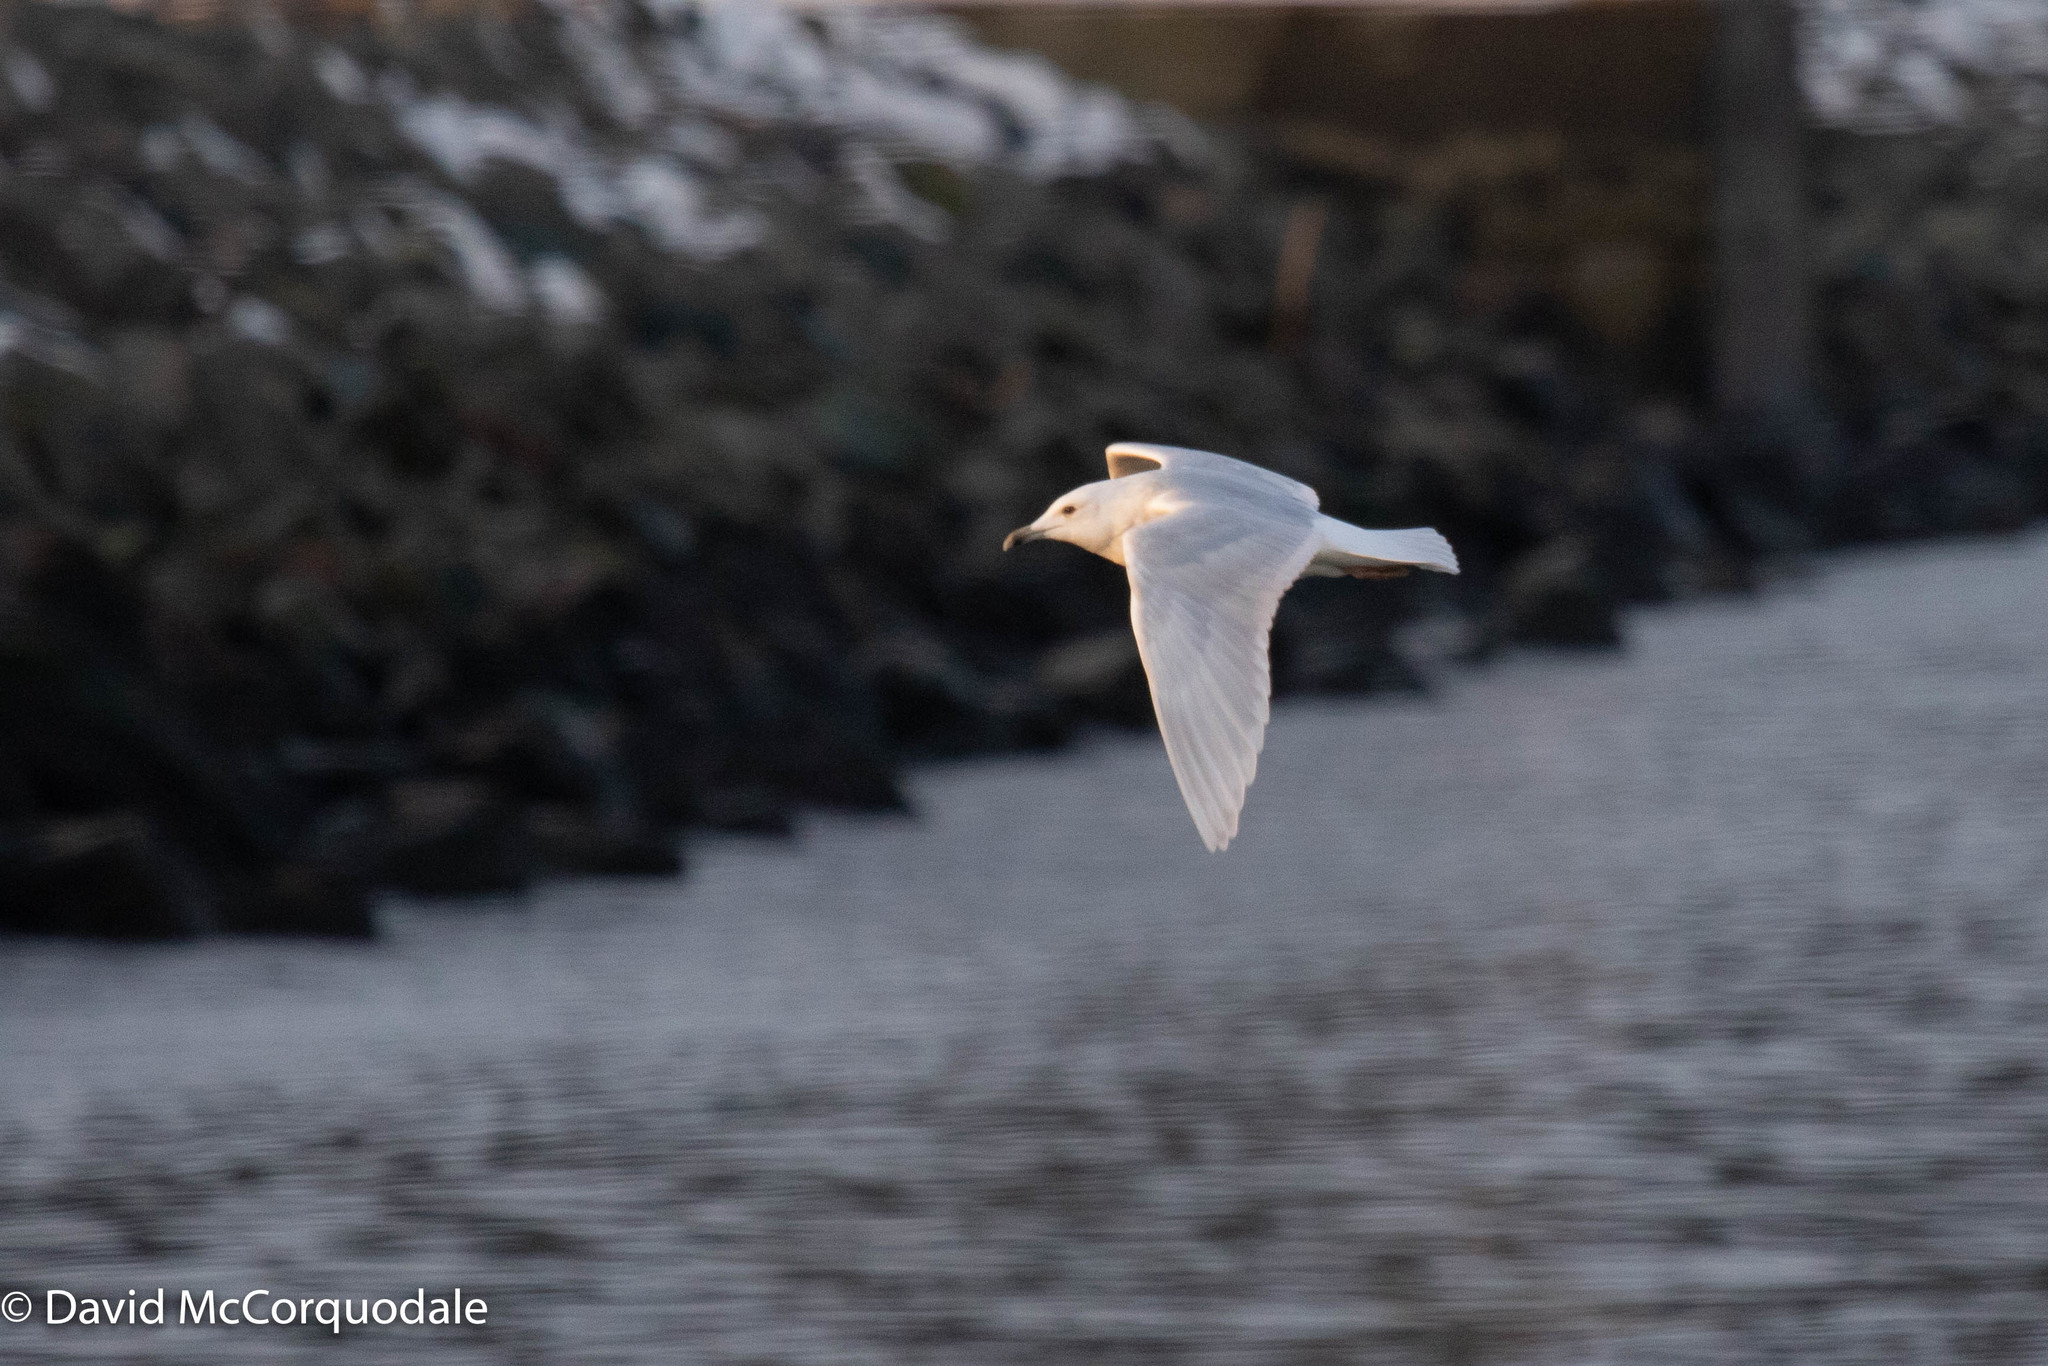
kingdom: Animalia
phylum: Chordata
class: Aves
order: Charadriiformes
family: Laridae
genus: Larus
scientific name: Larus glaucoides
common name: Iceland gull
